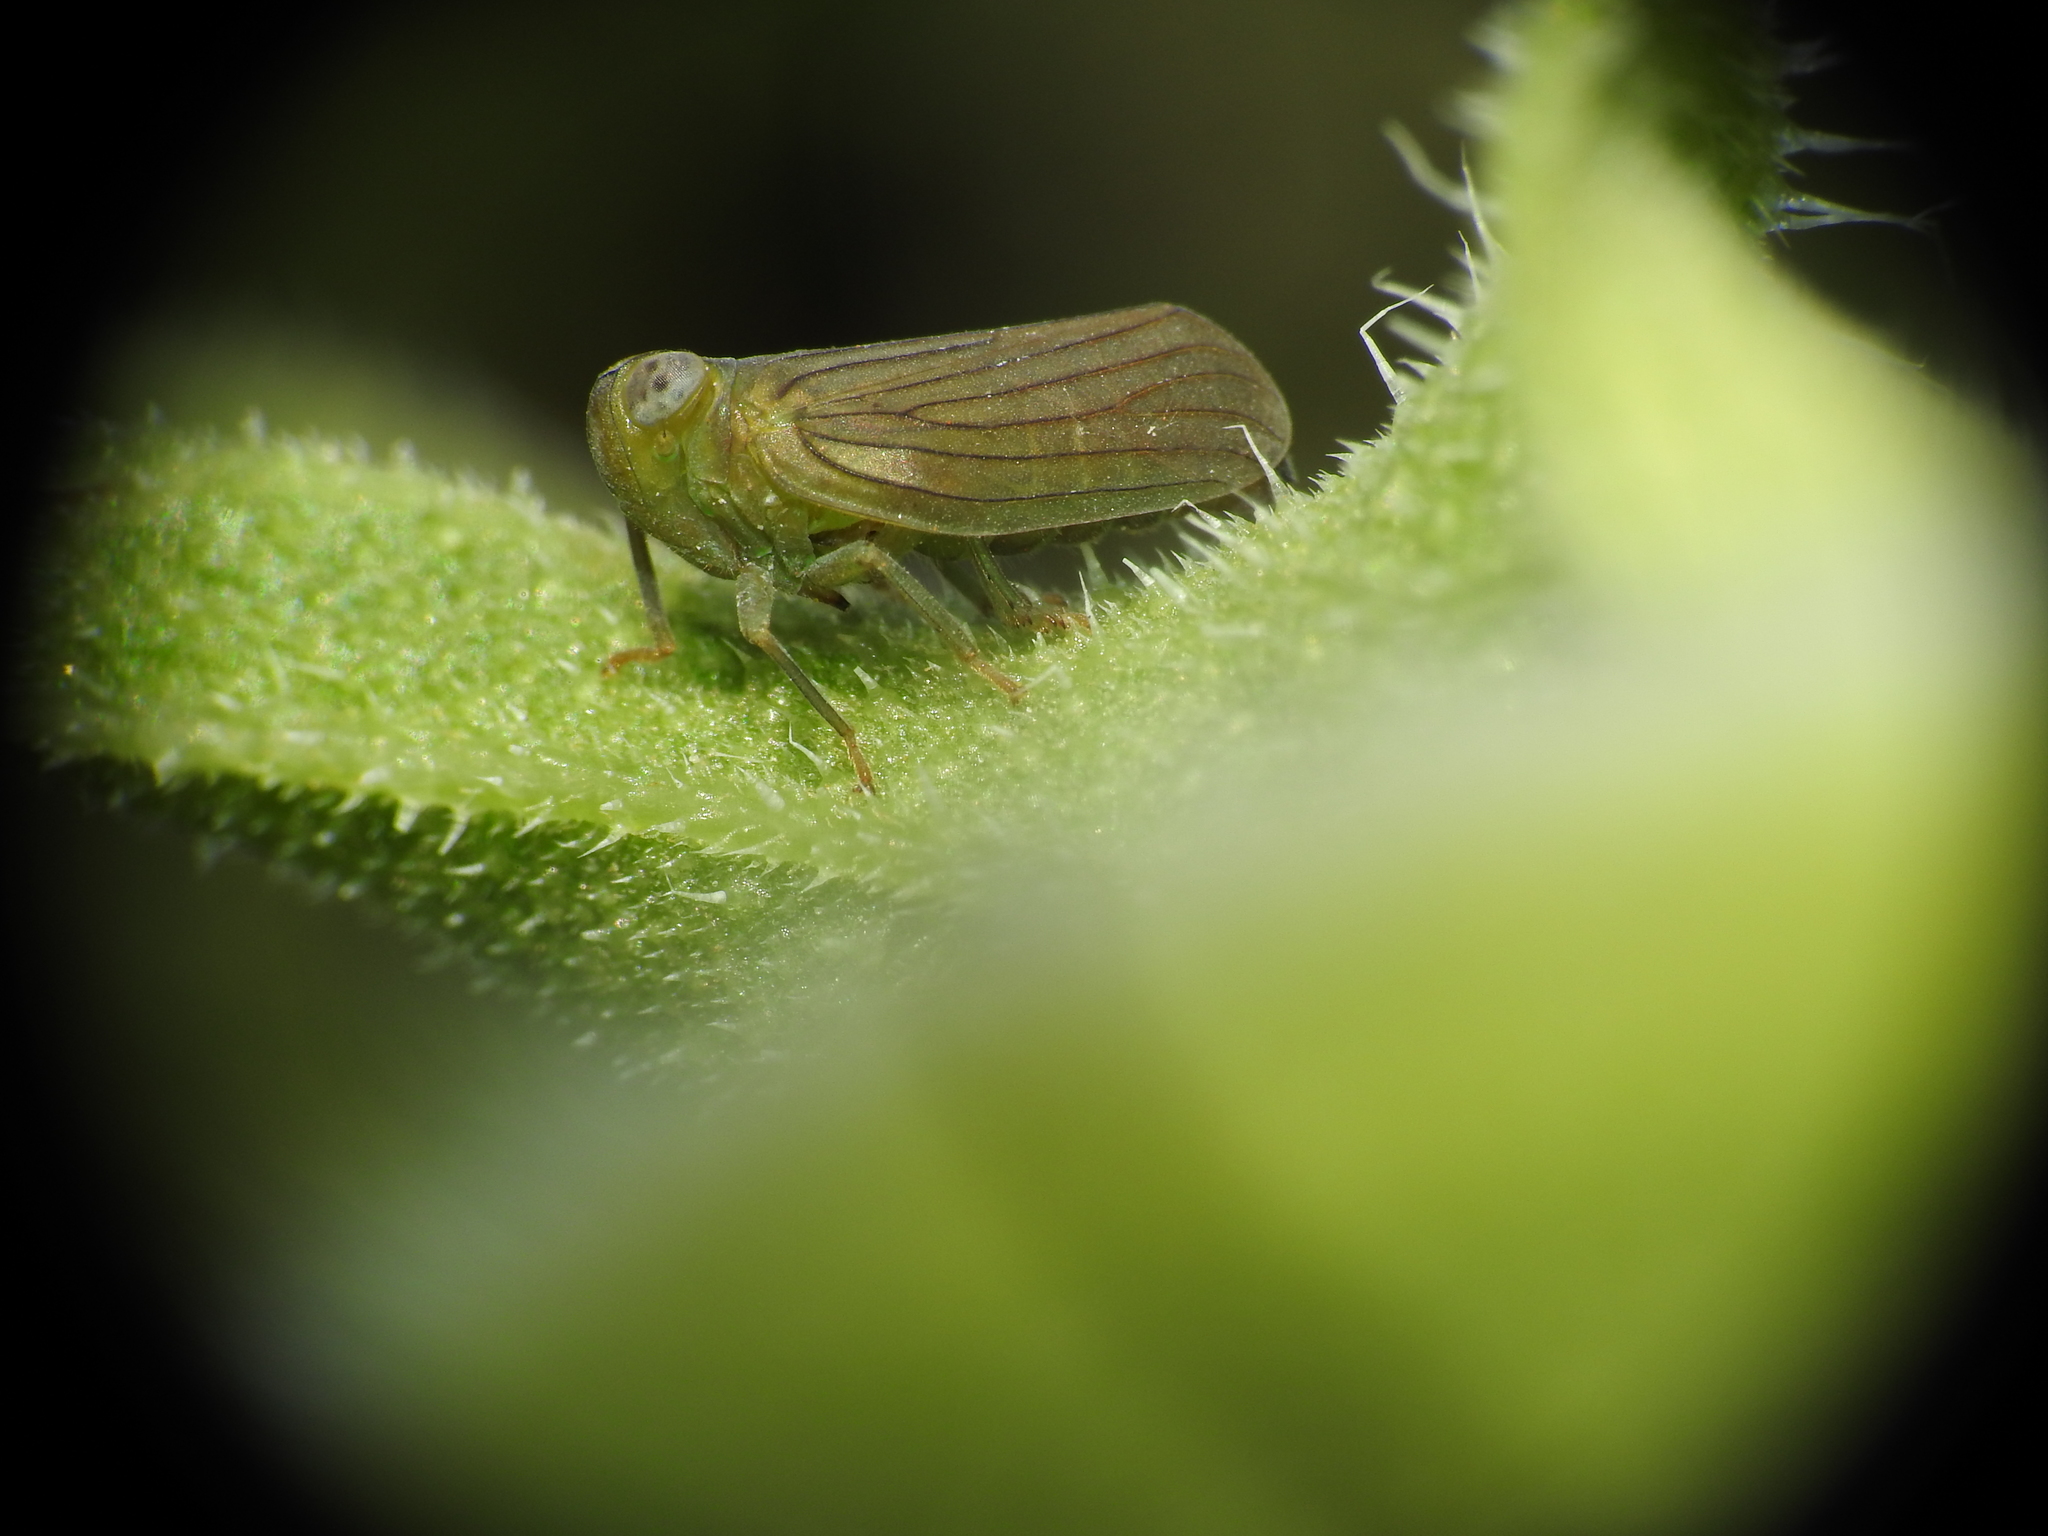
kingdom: Animalia
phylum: Arthropoda
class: Insecta
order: Hemiptera
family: Issidae
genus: Aplos
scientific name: Aplos simplex
